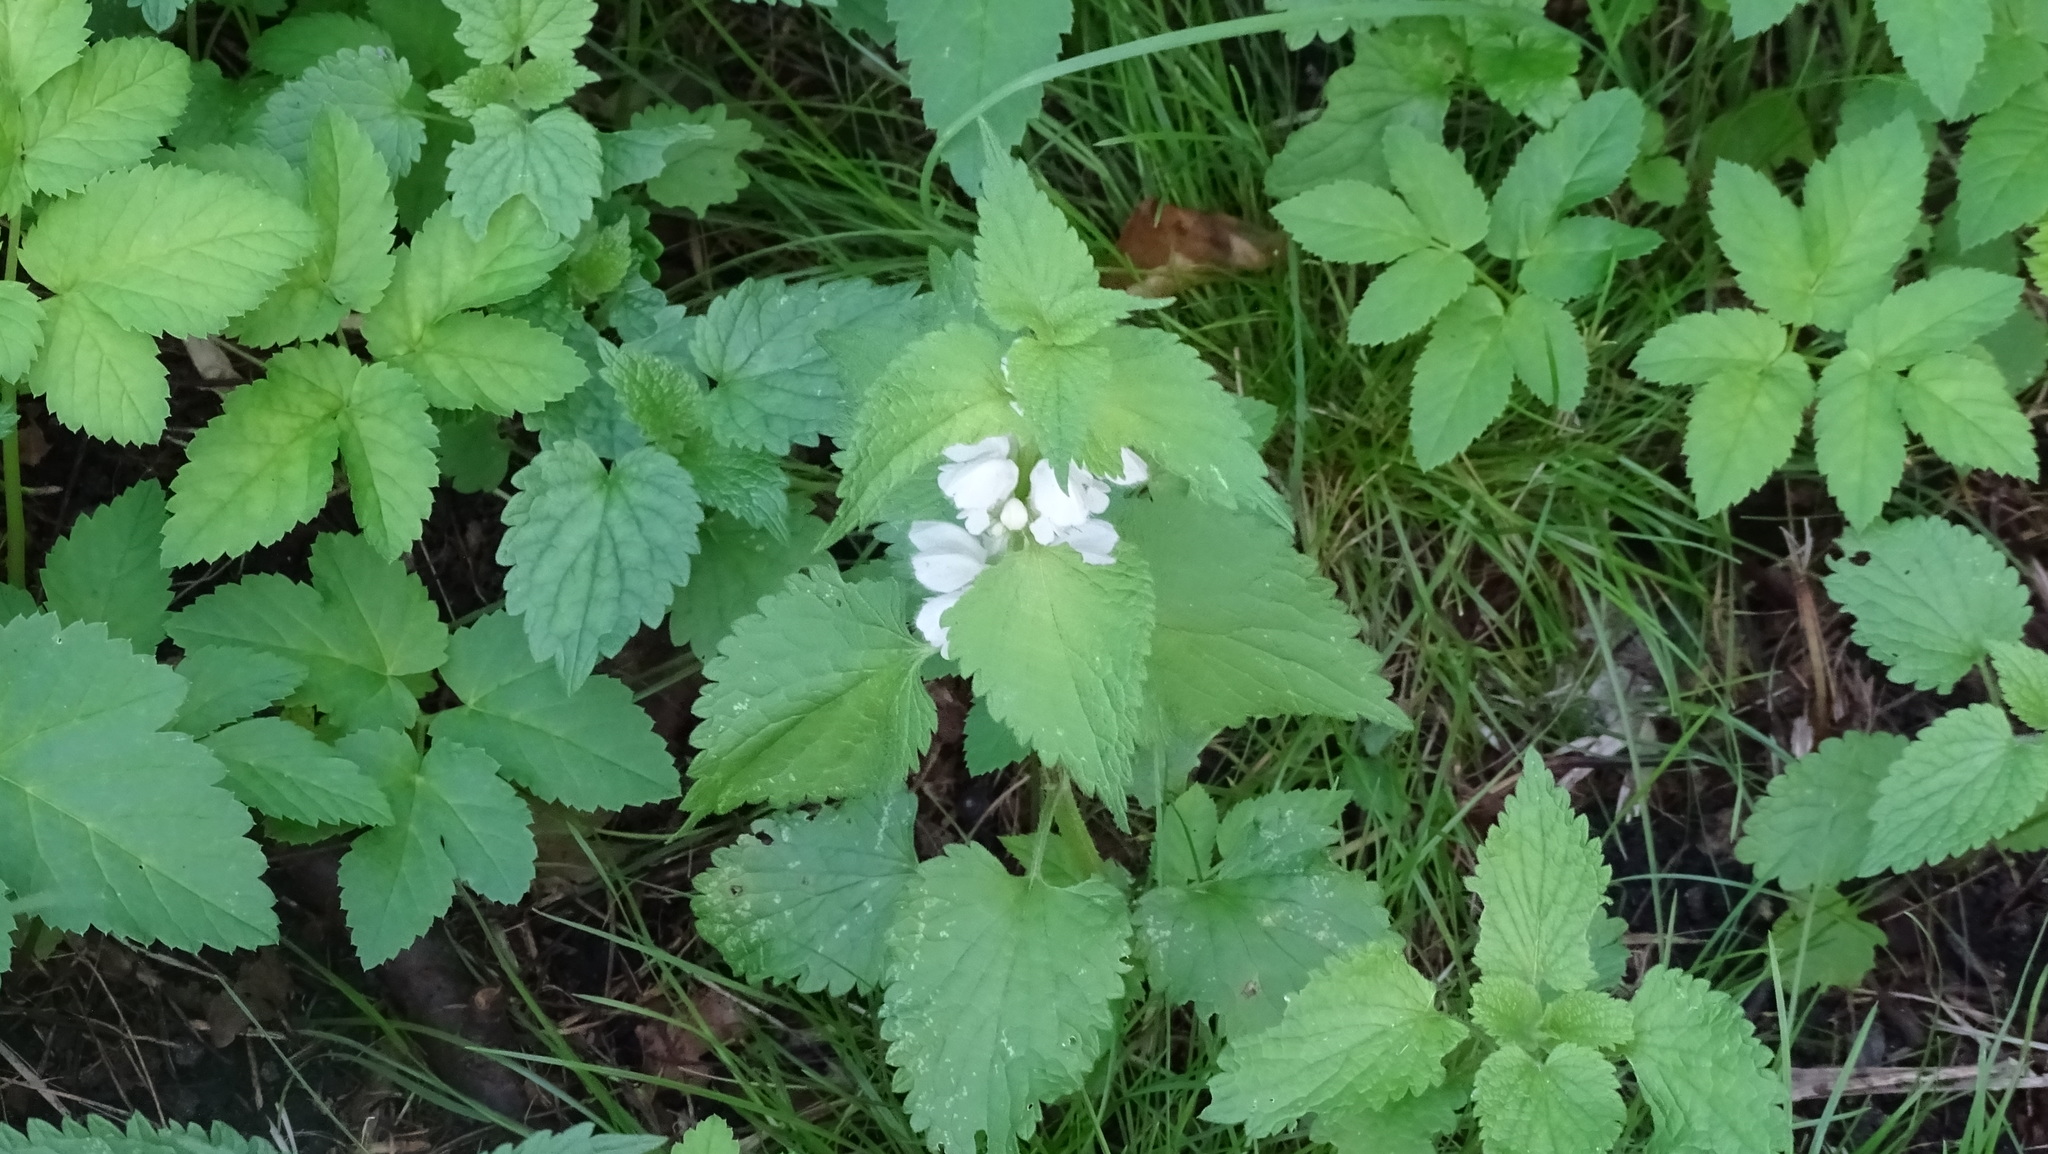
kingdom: Plantae
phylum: Tracheophyta
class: Magnoliopsida
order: Lamiales
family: Lamiaceae
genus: Lamium
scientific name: Lamium album
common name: White dead-nettle
